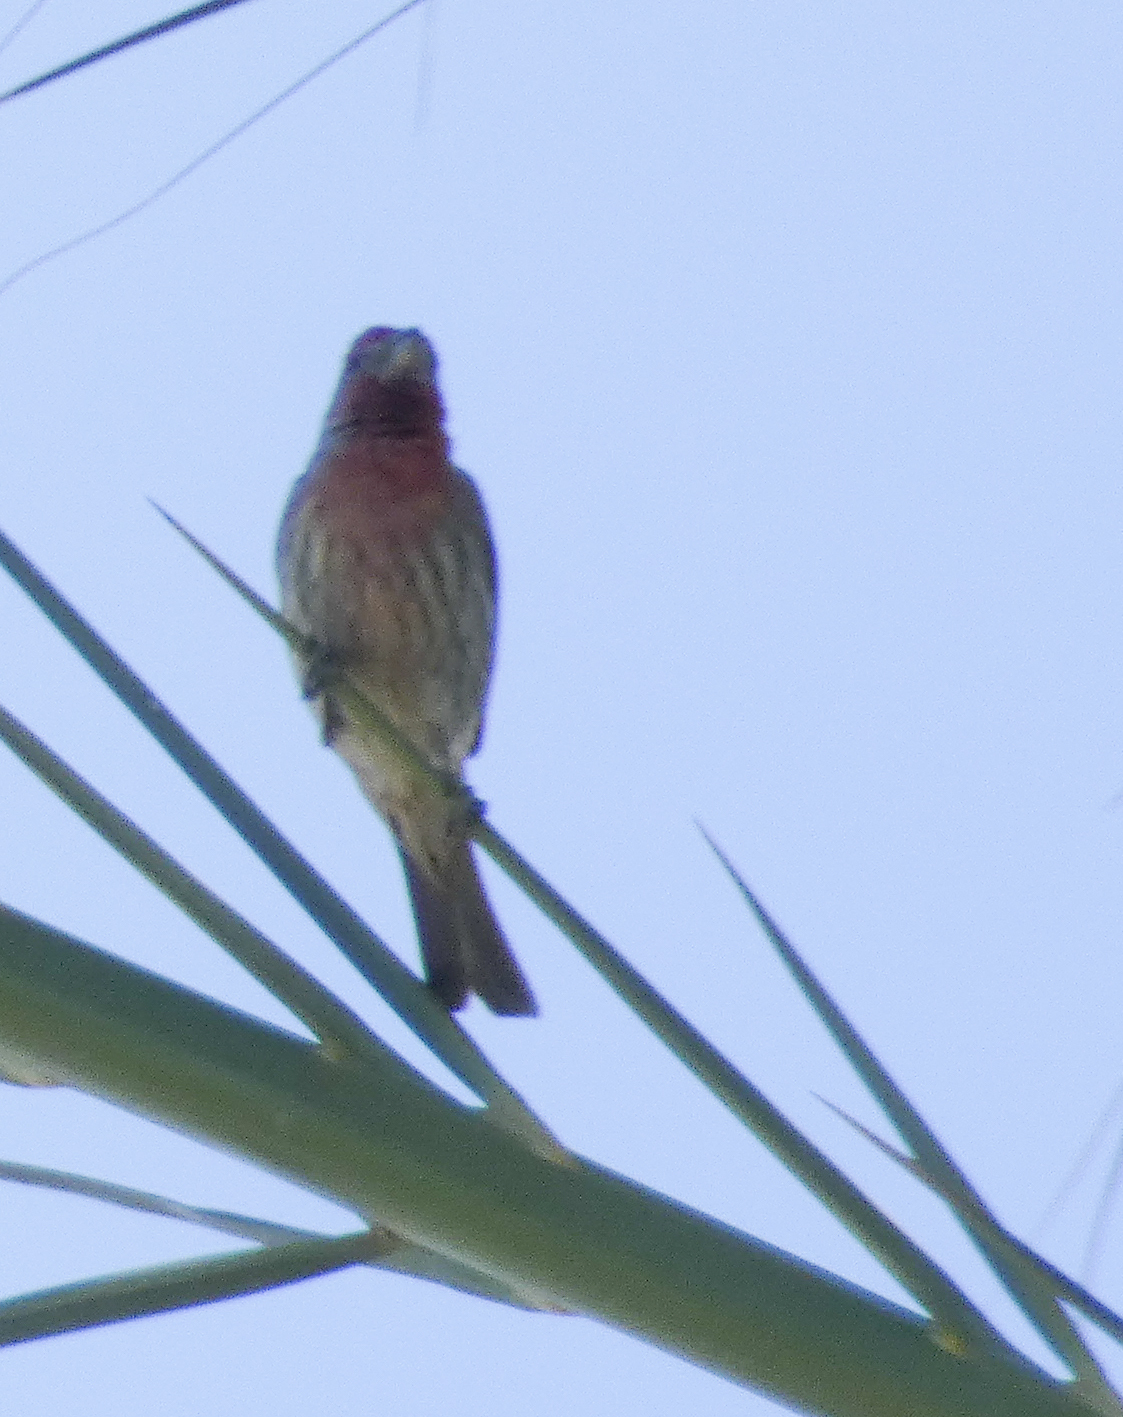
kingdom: Animalia
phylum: Chordata
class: Aves
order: Passeriformes
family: Fringillidae
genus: Haemorhous
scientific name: Haemorhous mexicanus
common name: House finch
